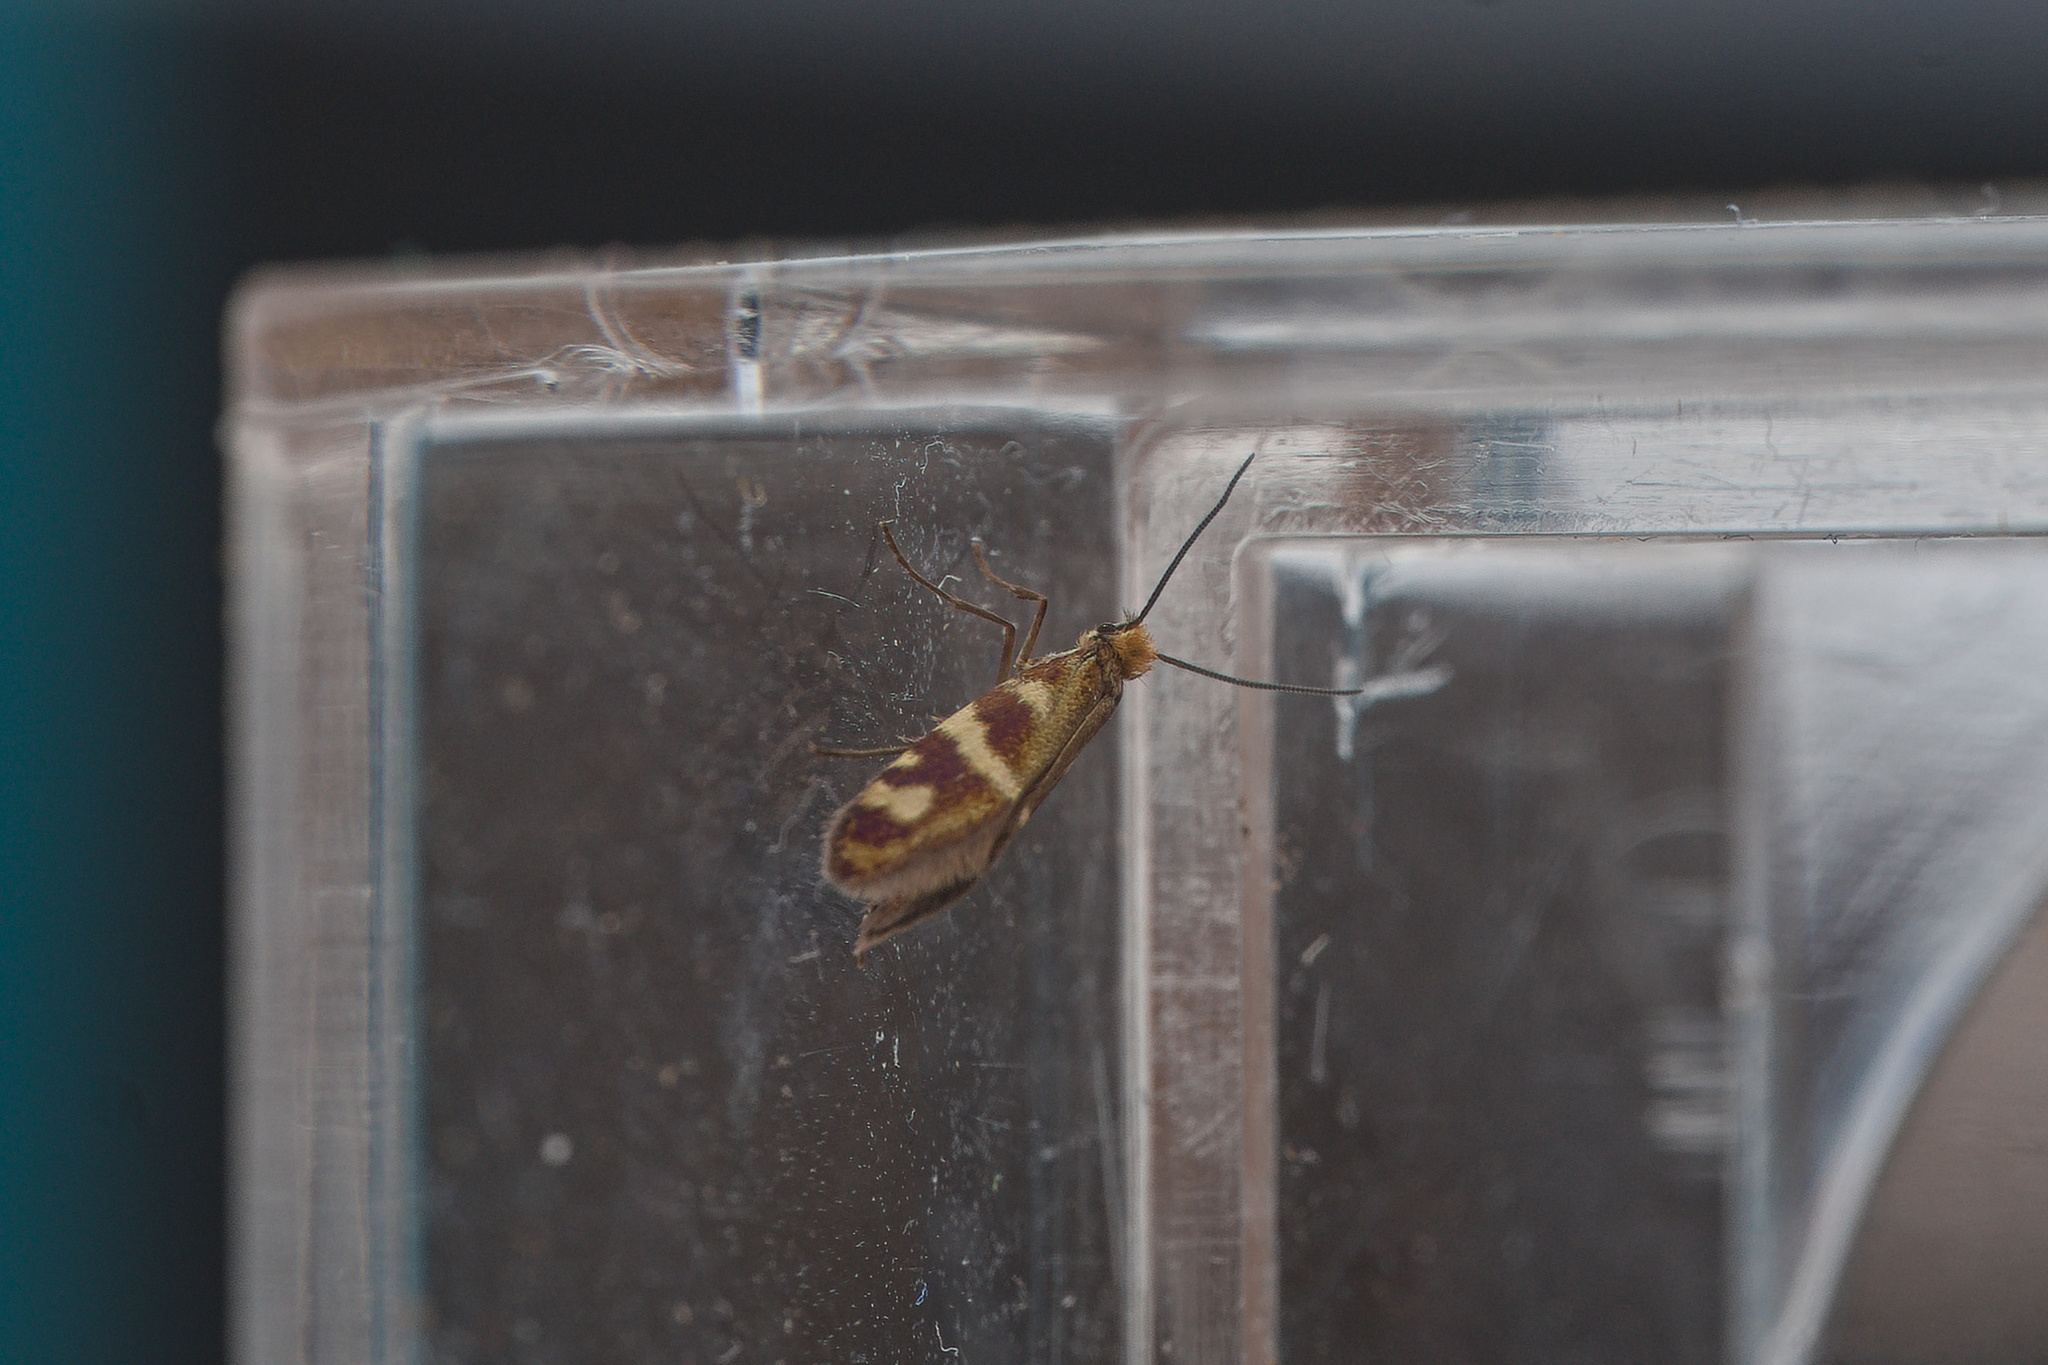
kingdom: Animalia
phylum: Arthropoda
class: Insecta
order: Lepidoptera
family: Micropterigidae
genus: Micropterix
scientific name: Micropterix schaefferi
